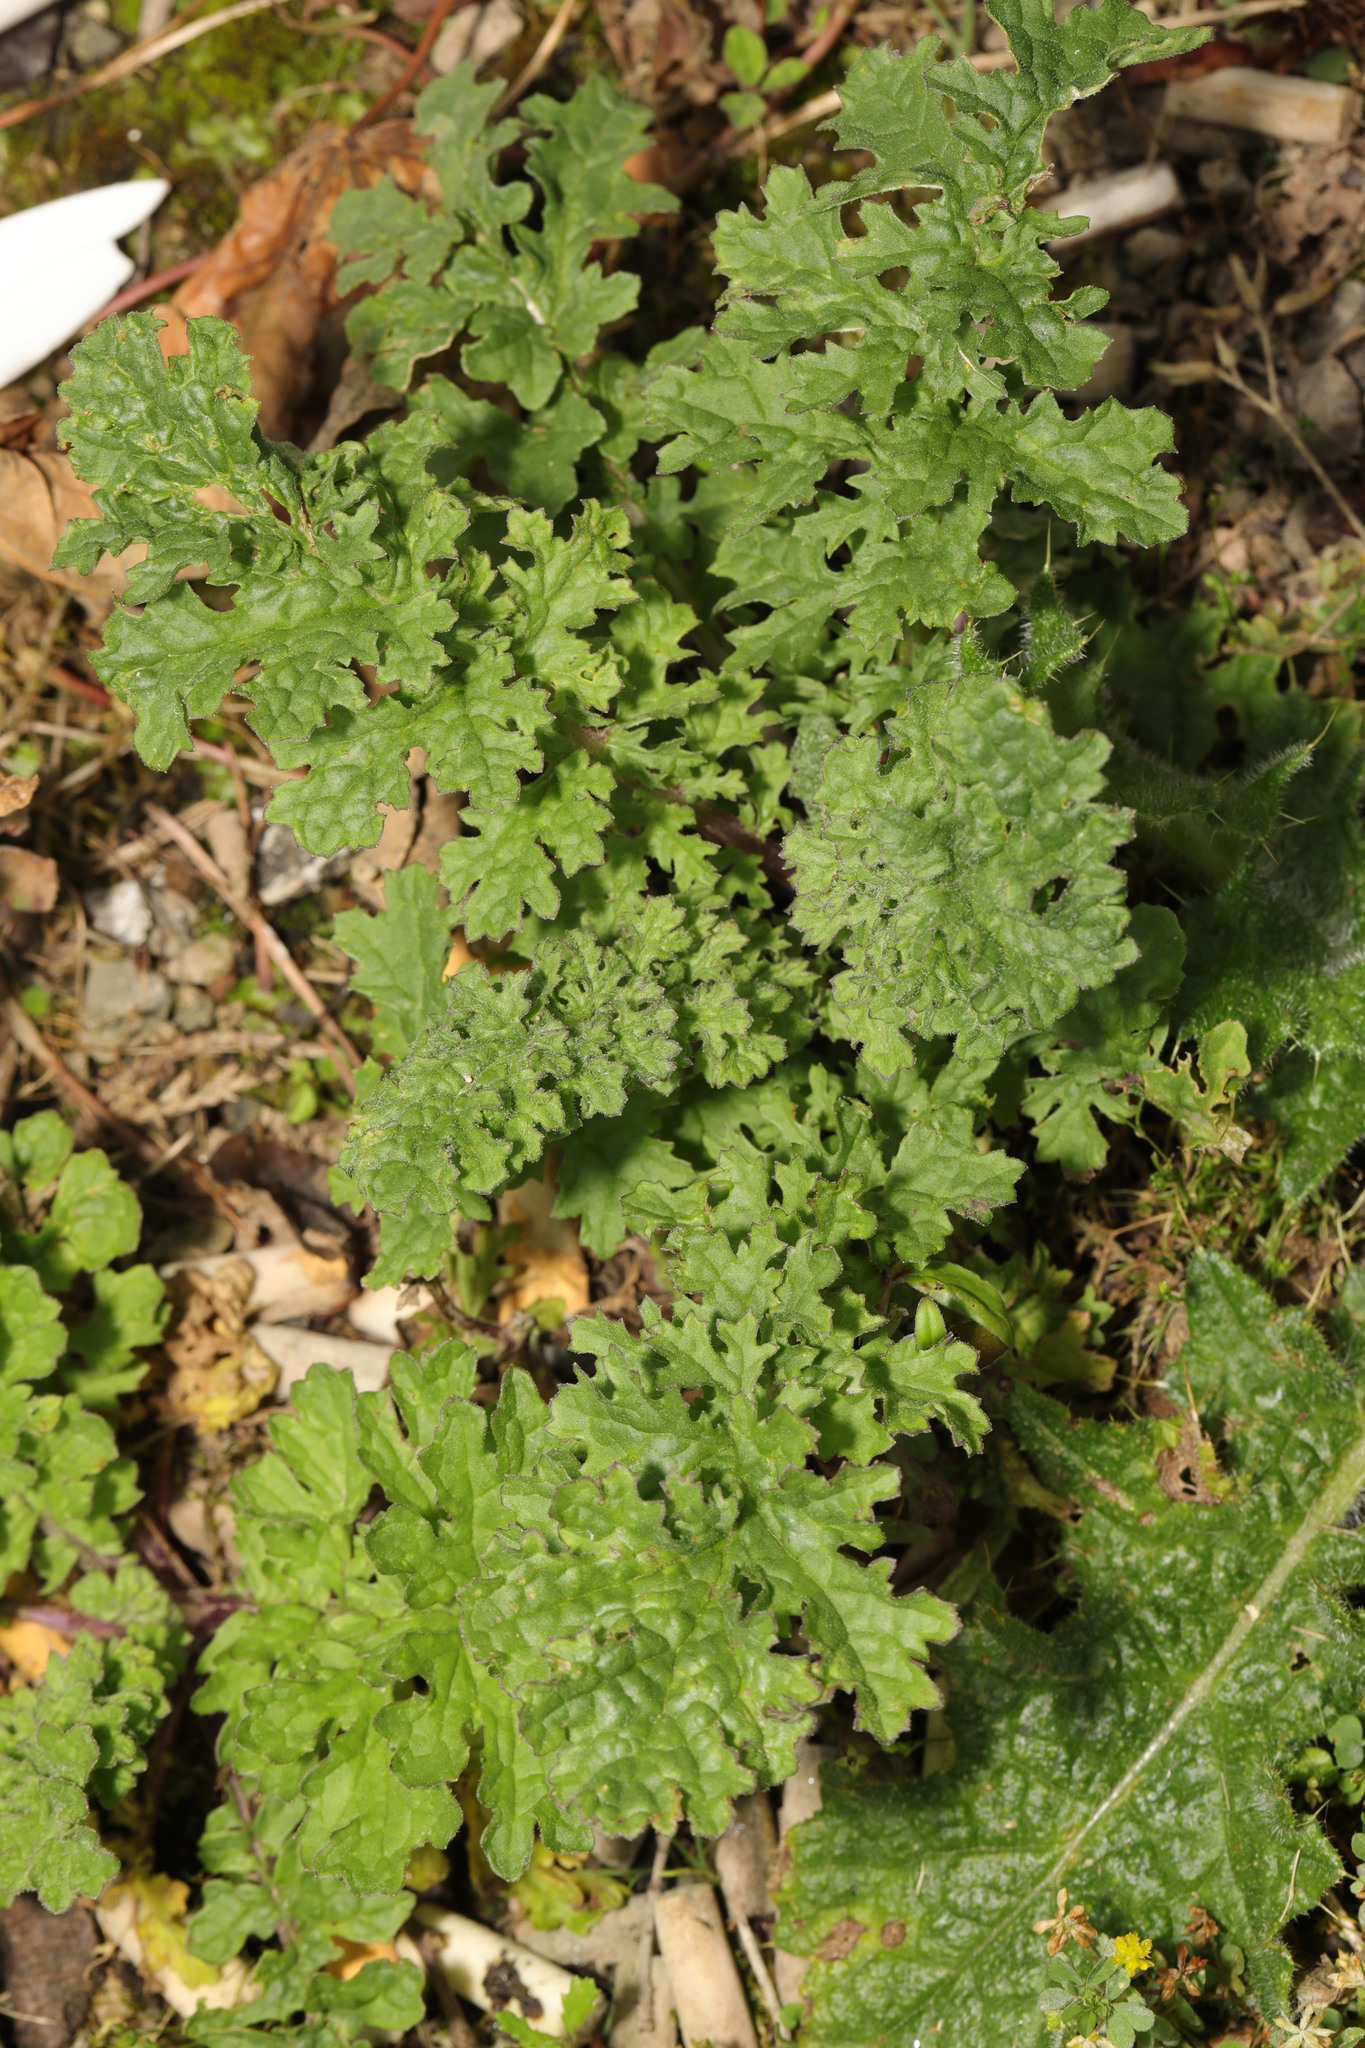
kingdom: Plantae
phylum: Tracheophyta
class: Magnoliopsida
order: Asterales
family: Asteraceae
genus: Jacobaea
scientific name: Jacobaea vulgaris
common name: Stinking willie
